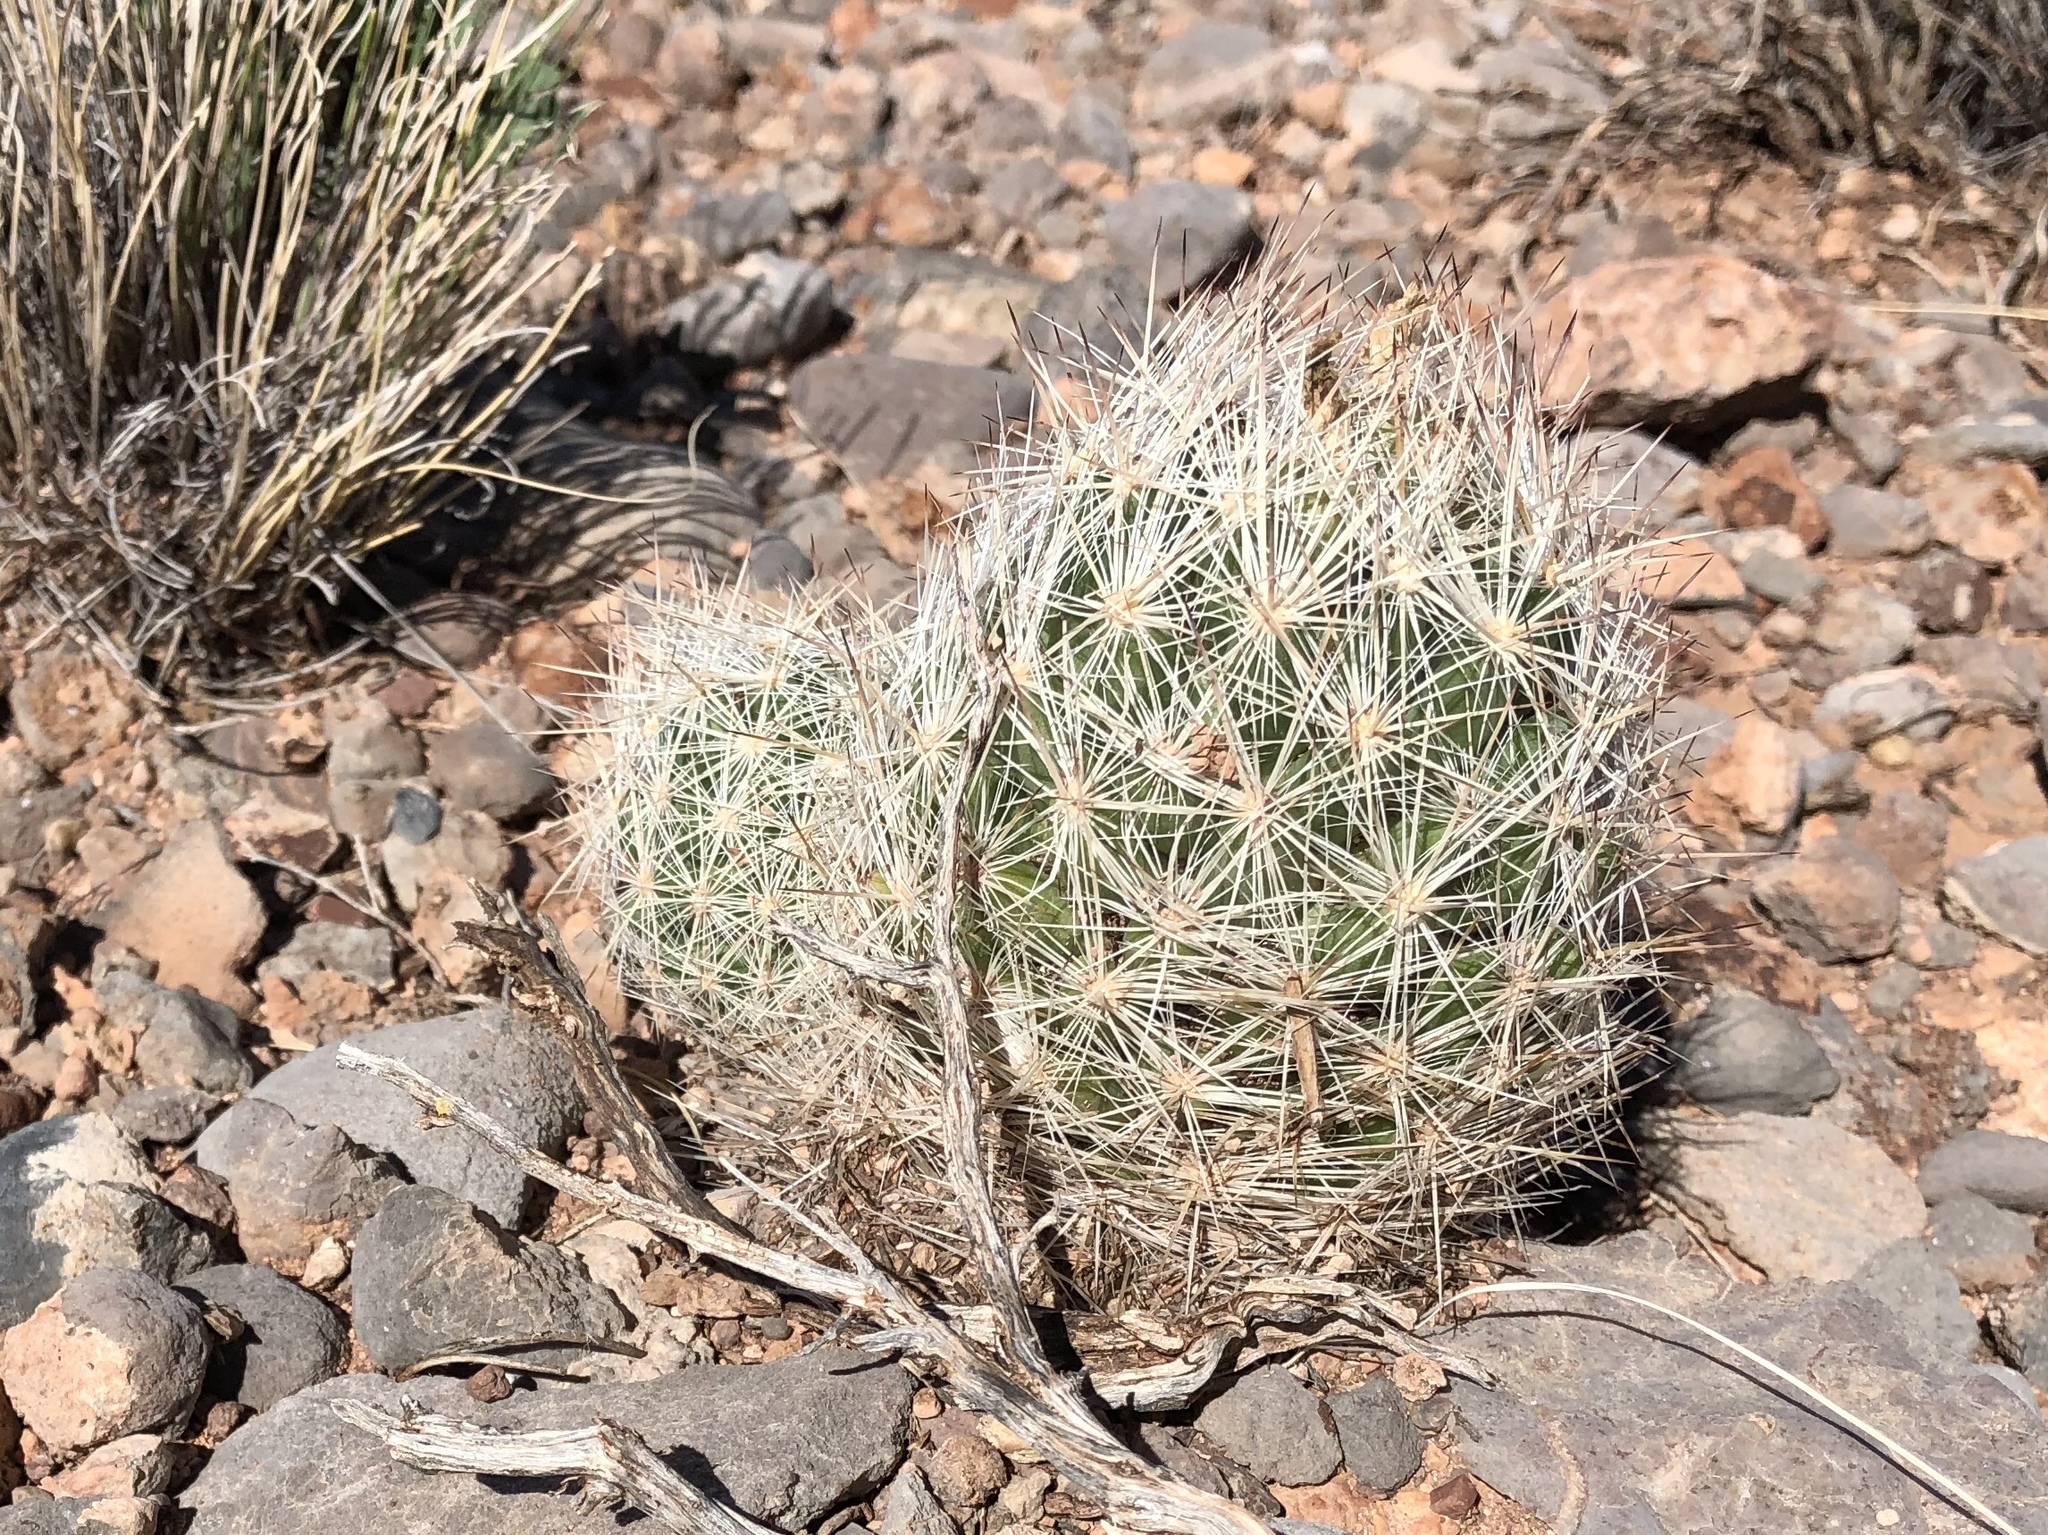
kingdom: Plantae
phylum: Tracheophyta
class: Magnoliopsida
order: Caryophyllales
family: Cactaceae
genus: Pelecyphora
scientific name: Pelecyphora vivipara
